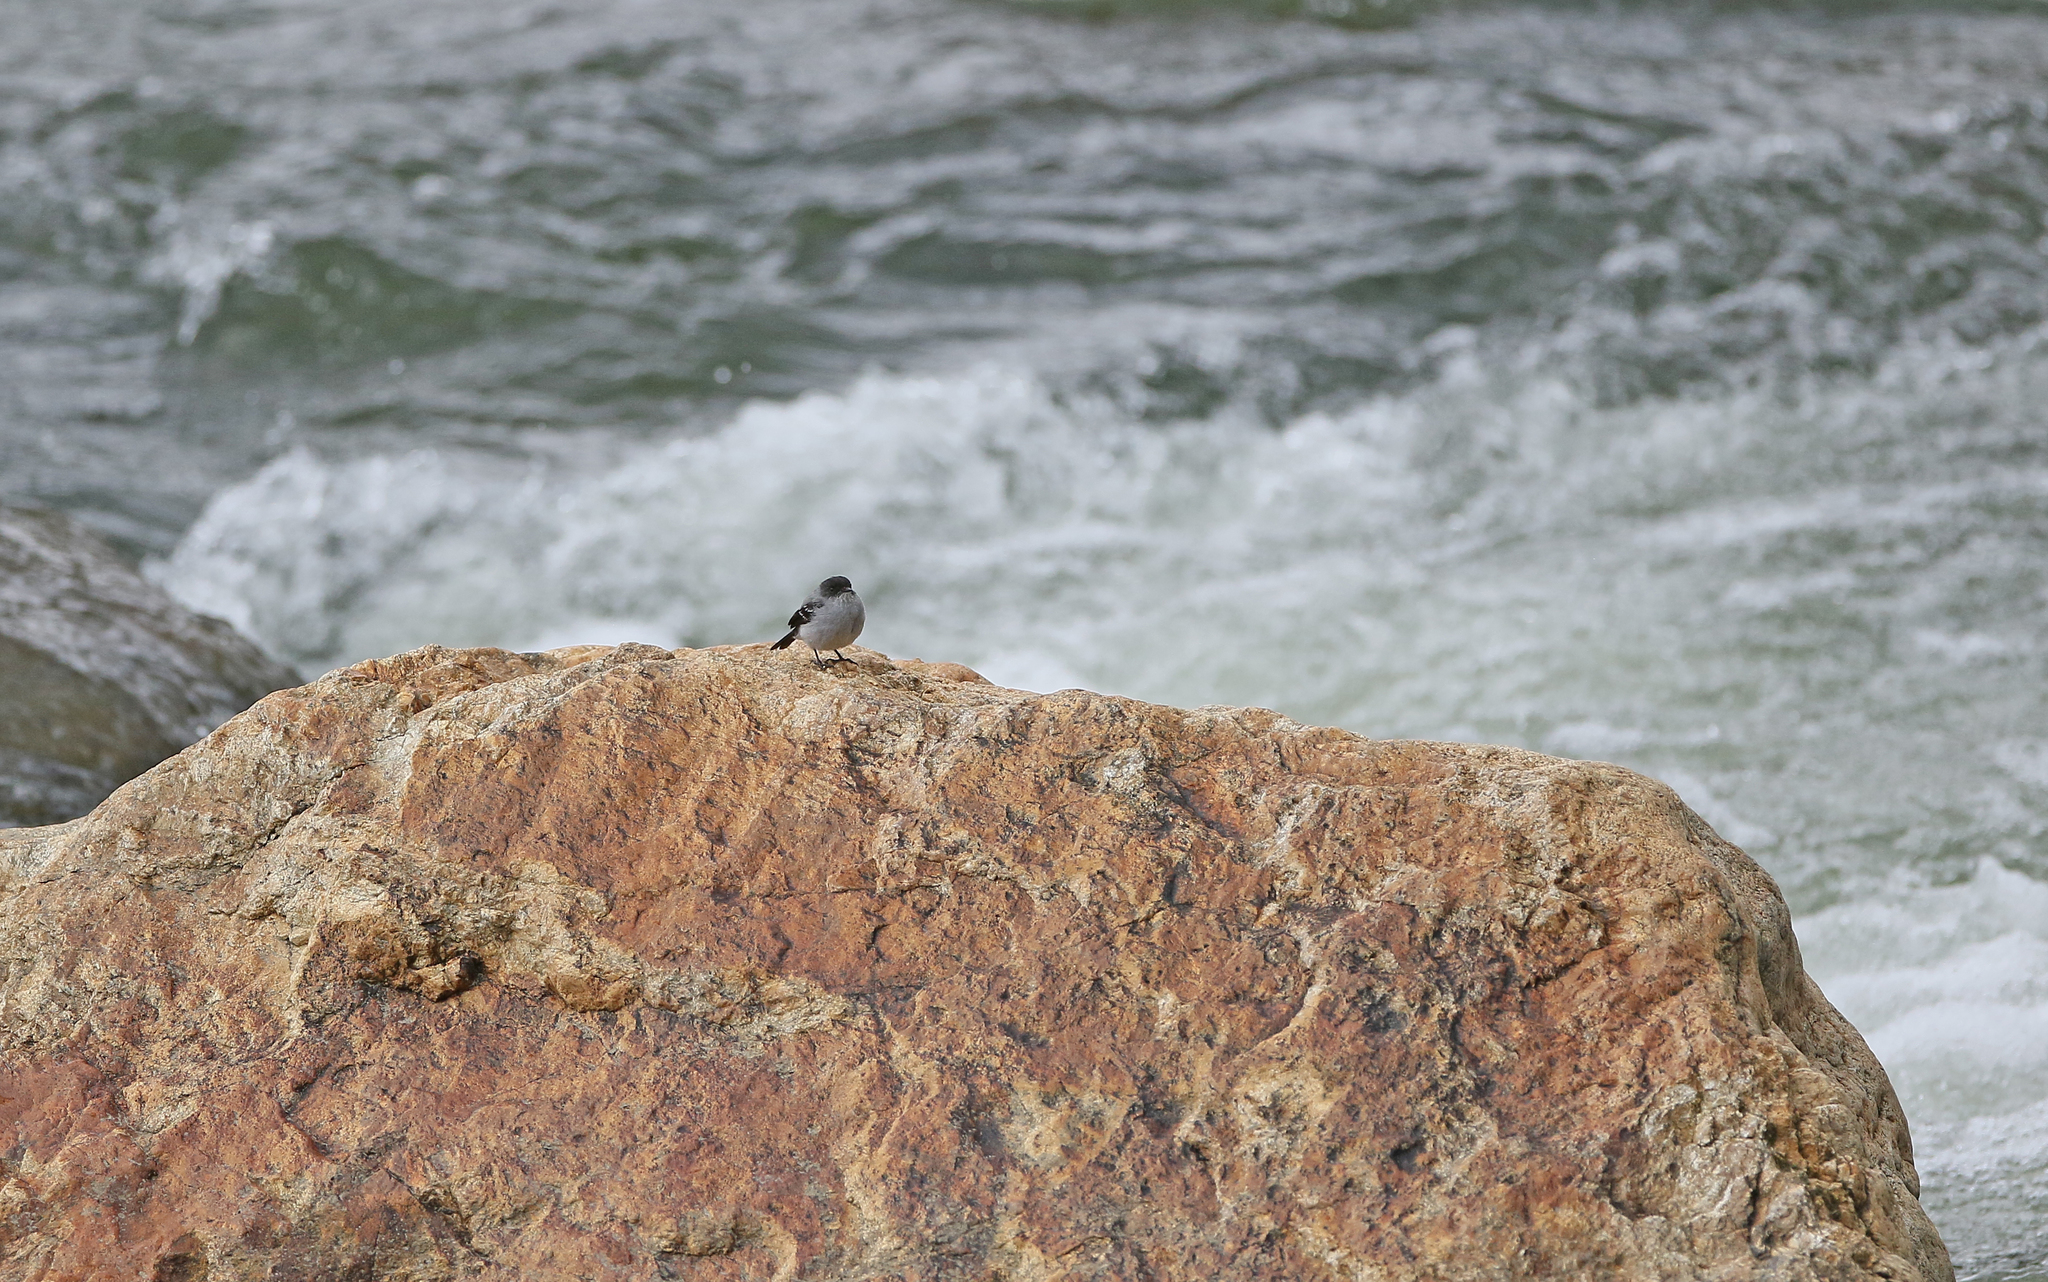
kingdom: Animalia
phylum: Chordata
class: Aves
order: Passeriformes
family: Tyrannidae
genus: Serpophaga
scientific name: Serpophaga cinerea
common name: Torrent tyrannulet
